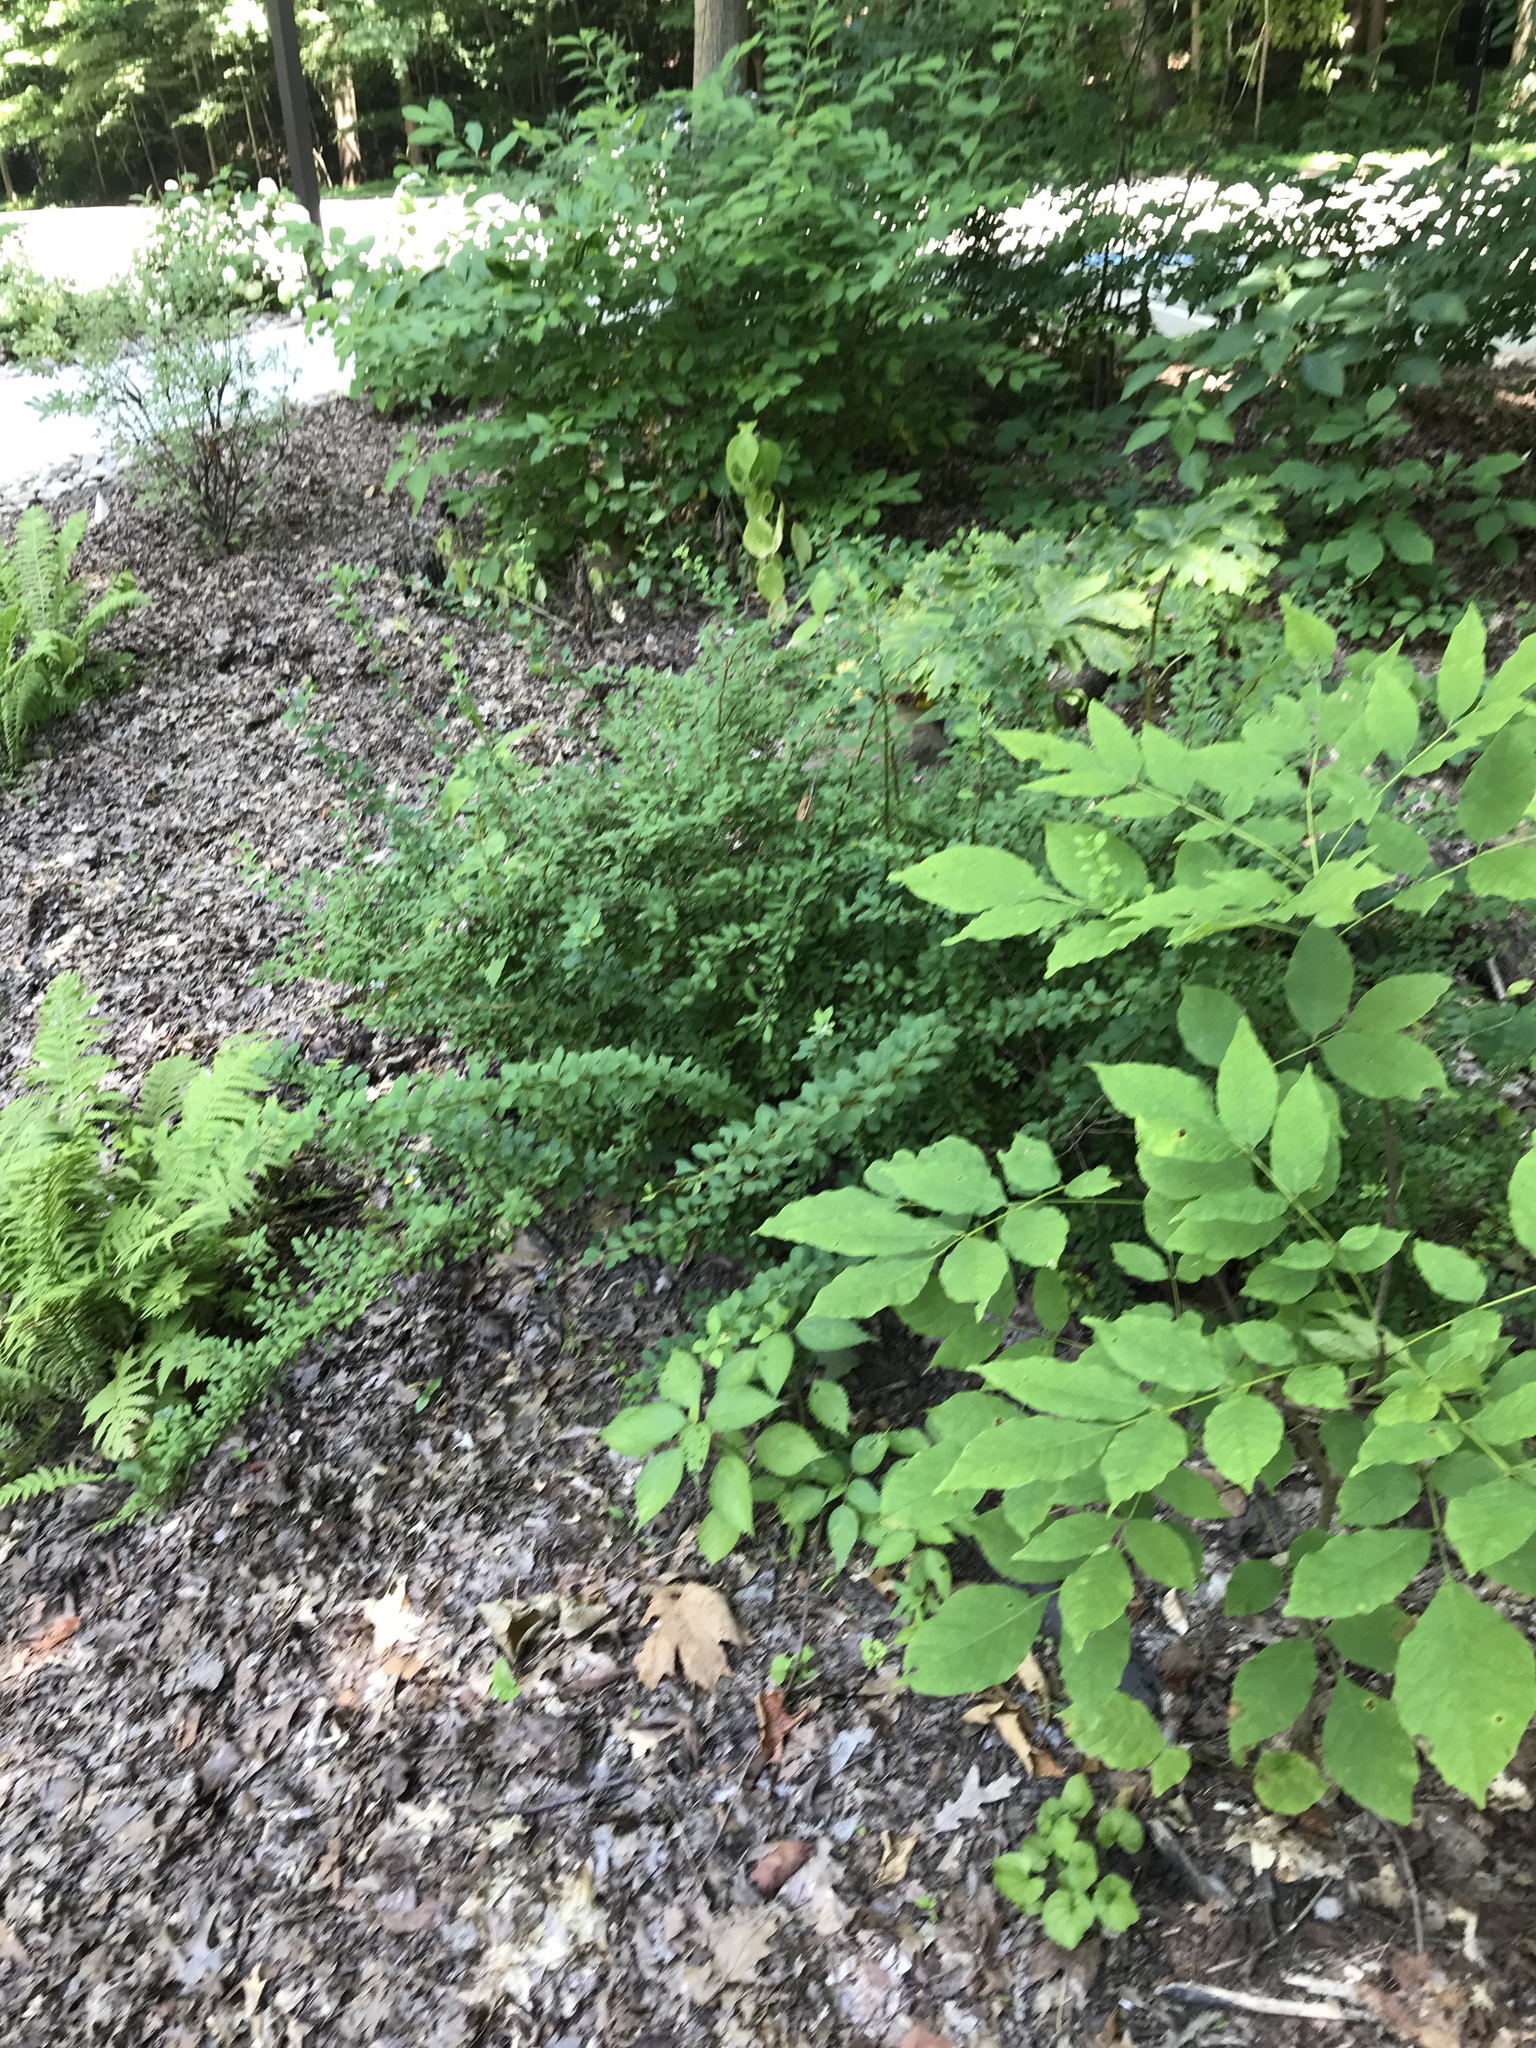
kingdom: Plantae
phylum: Tracheophyta
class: Magnoliopsida
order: Ranunculales
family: Berberidaceae
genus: Berberis
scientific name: Berberis thunbergii
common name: Japanese barberry
